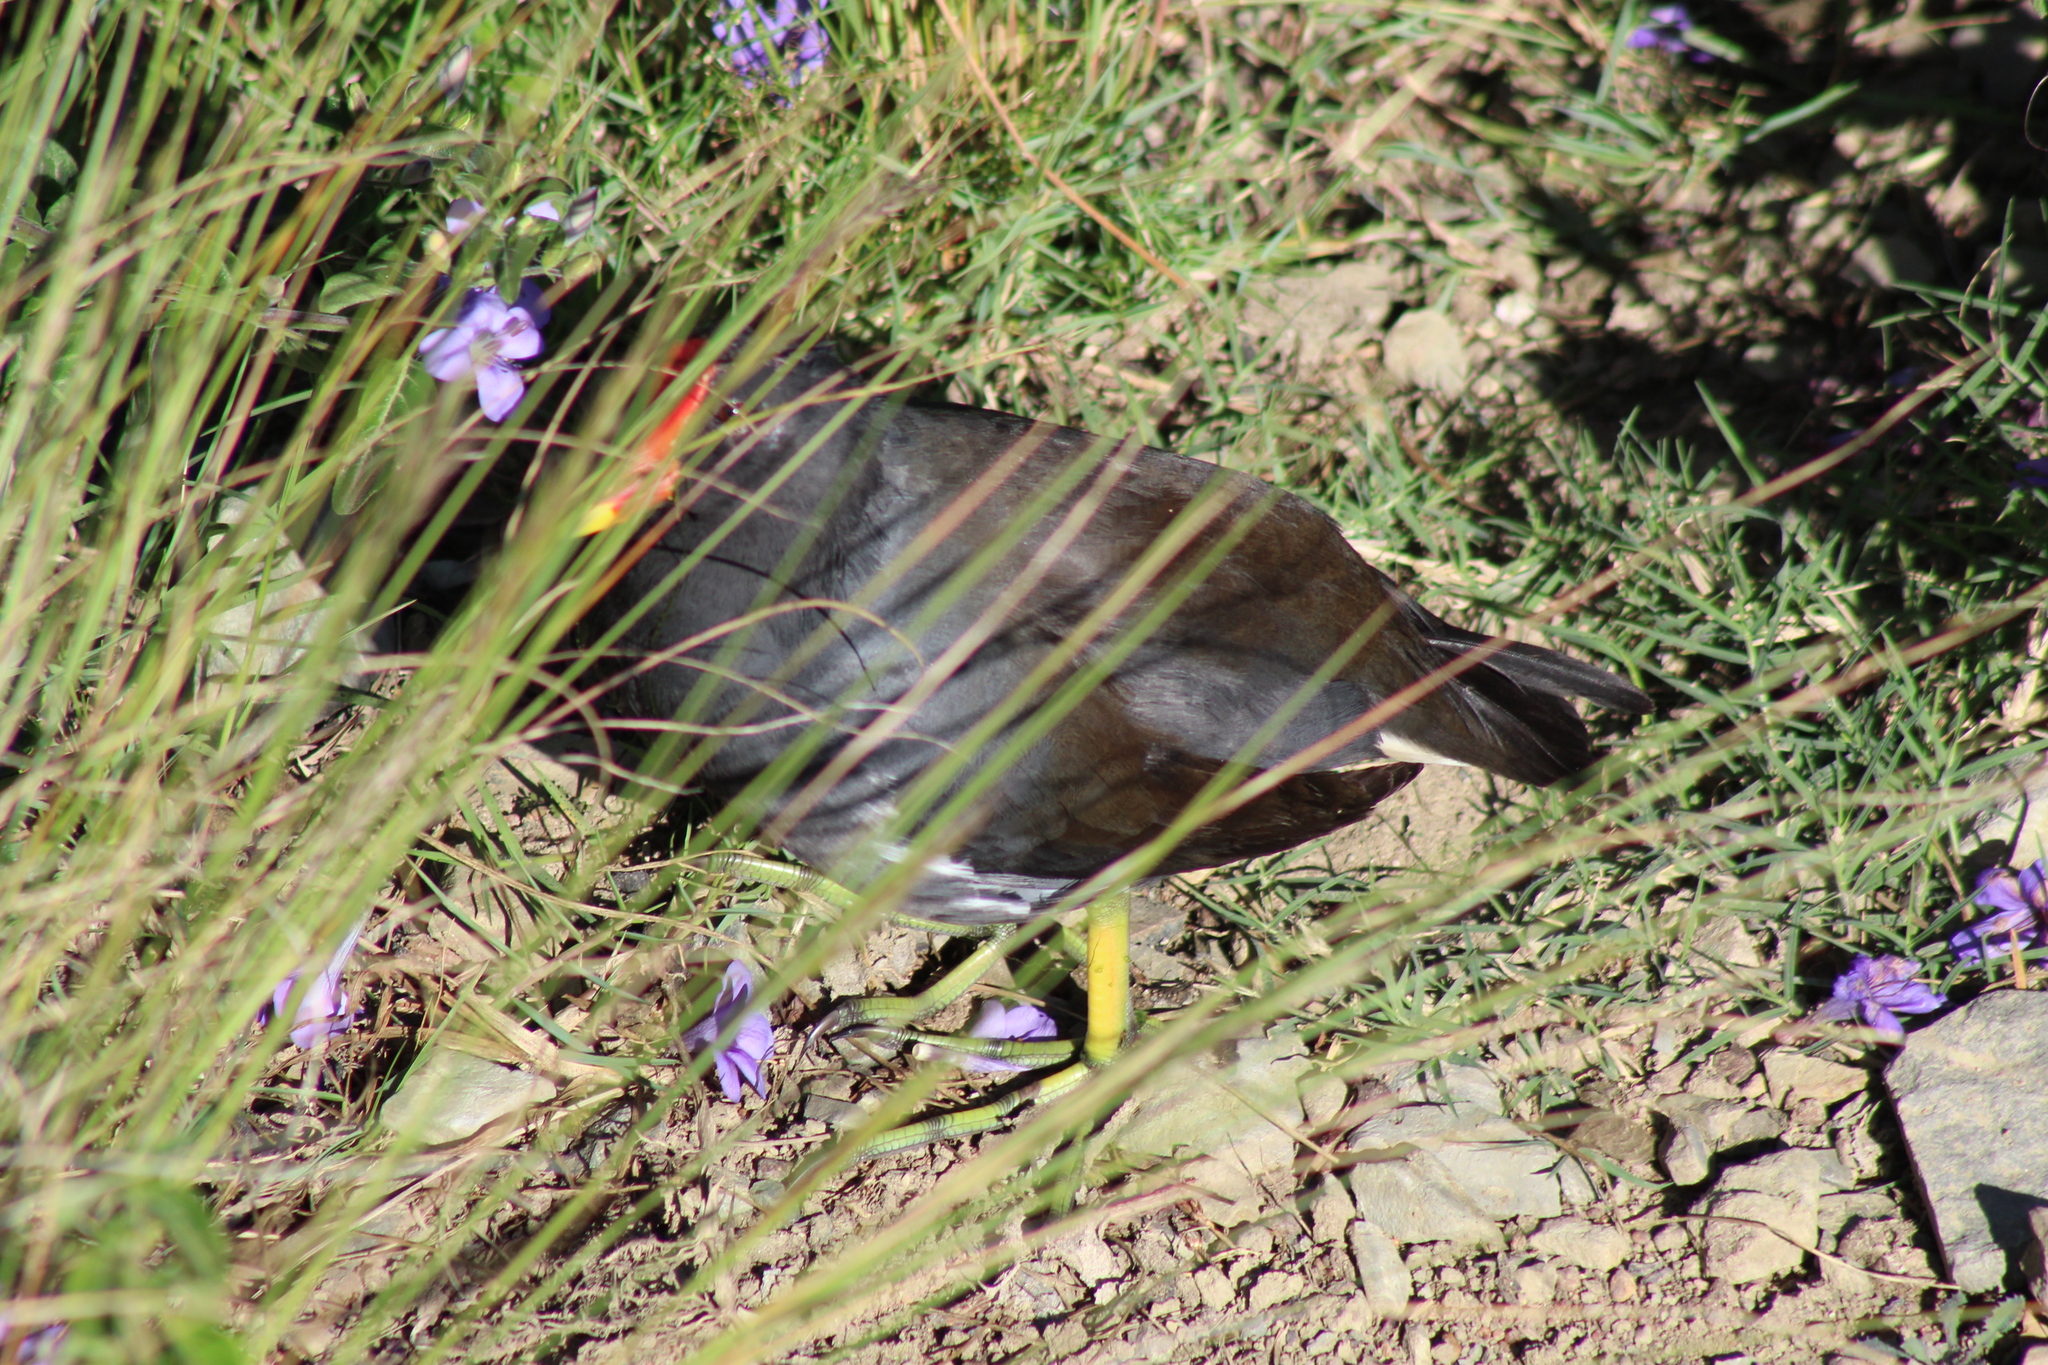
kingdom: Animalia
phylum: Chordata
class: Aves
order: Gruiformes
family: Rallidae
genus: Gallinula
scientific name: Gallinula chloropus
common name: Common moorhen
